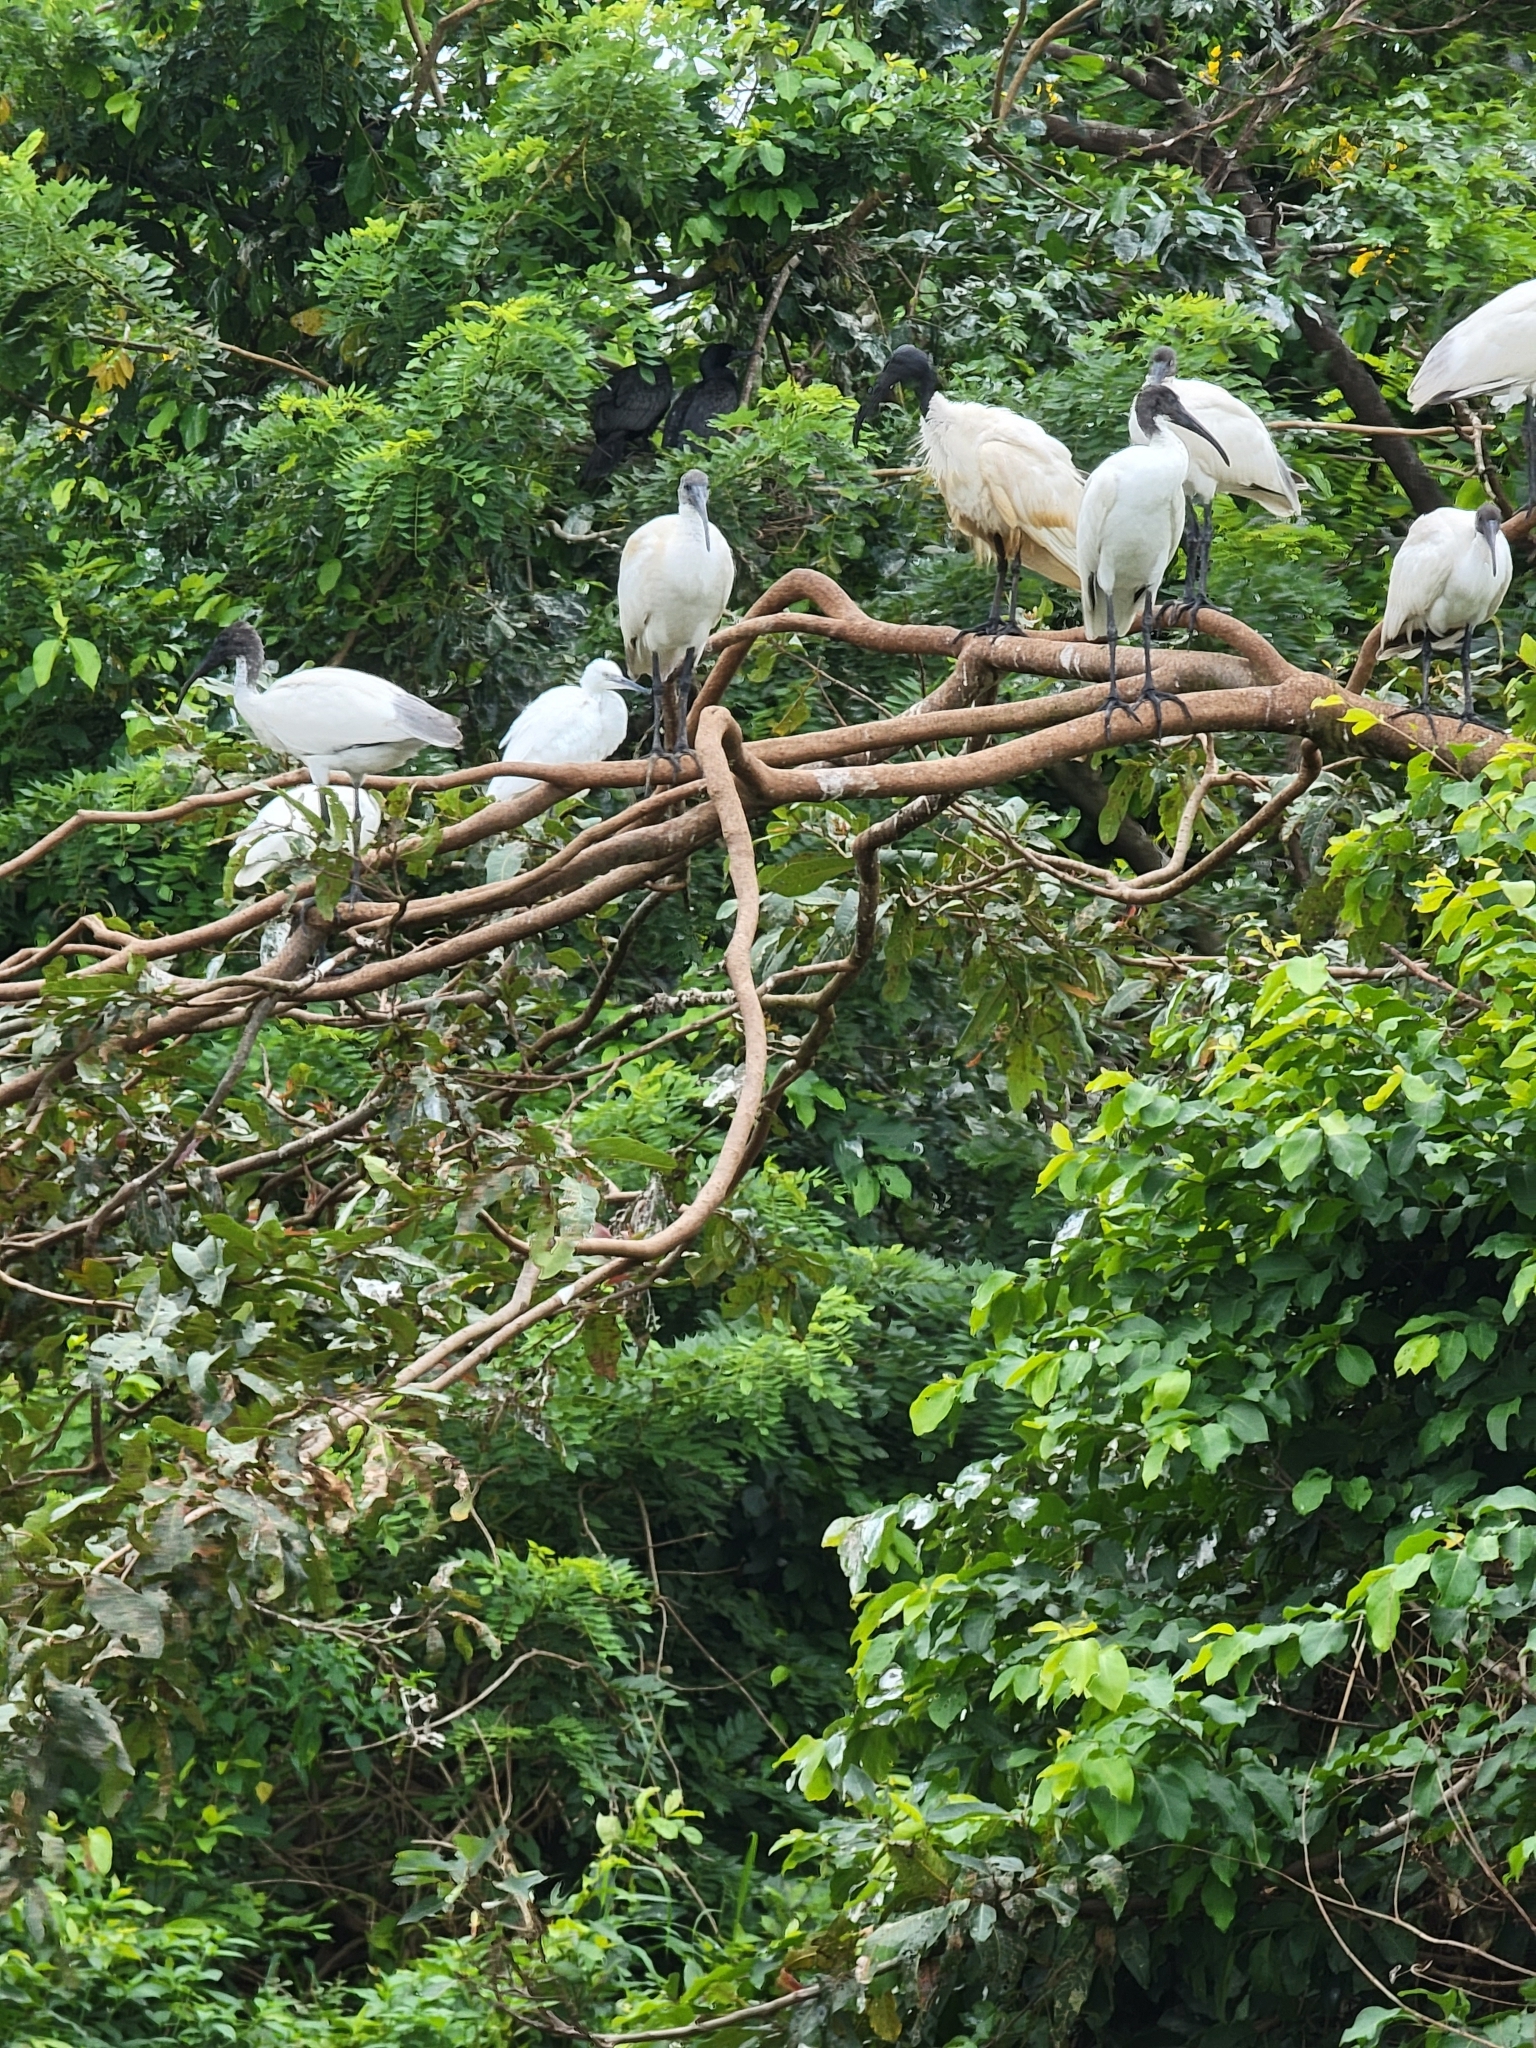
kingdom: Animalia
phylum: Chordata
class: Aves
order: Pelecaniformes
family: Threskiornithidae
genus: Threskiornis
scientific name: Threskiornis melanocephalus
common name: Black-headed ibis
